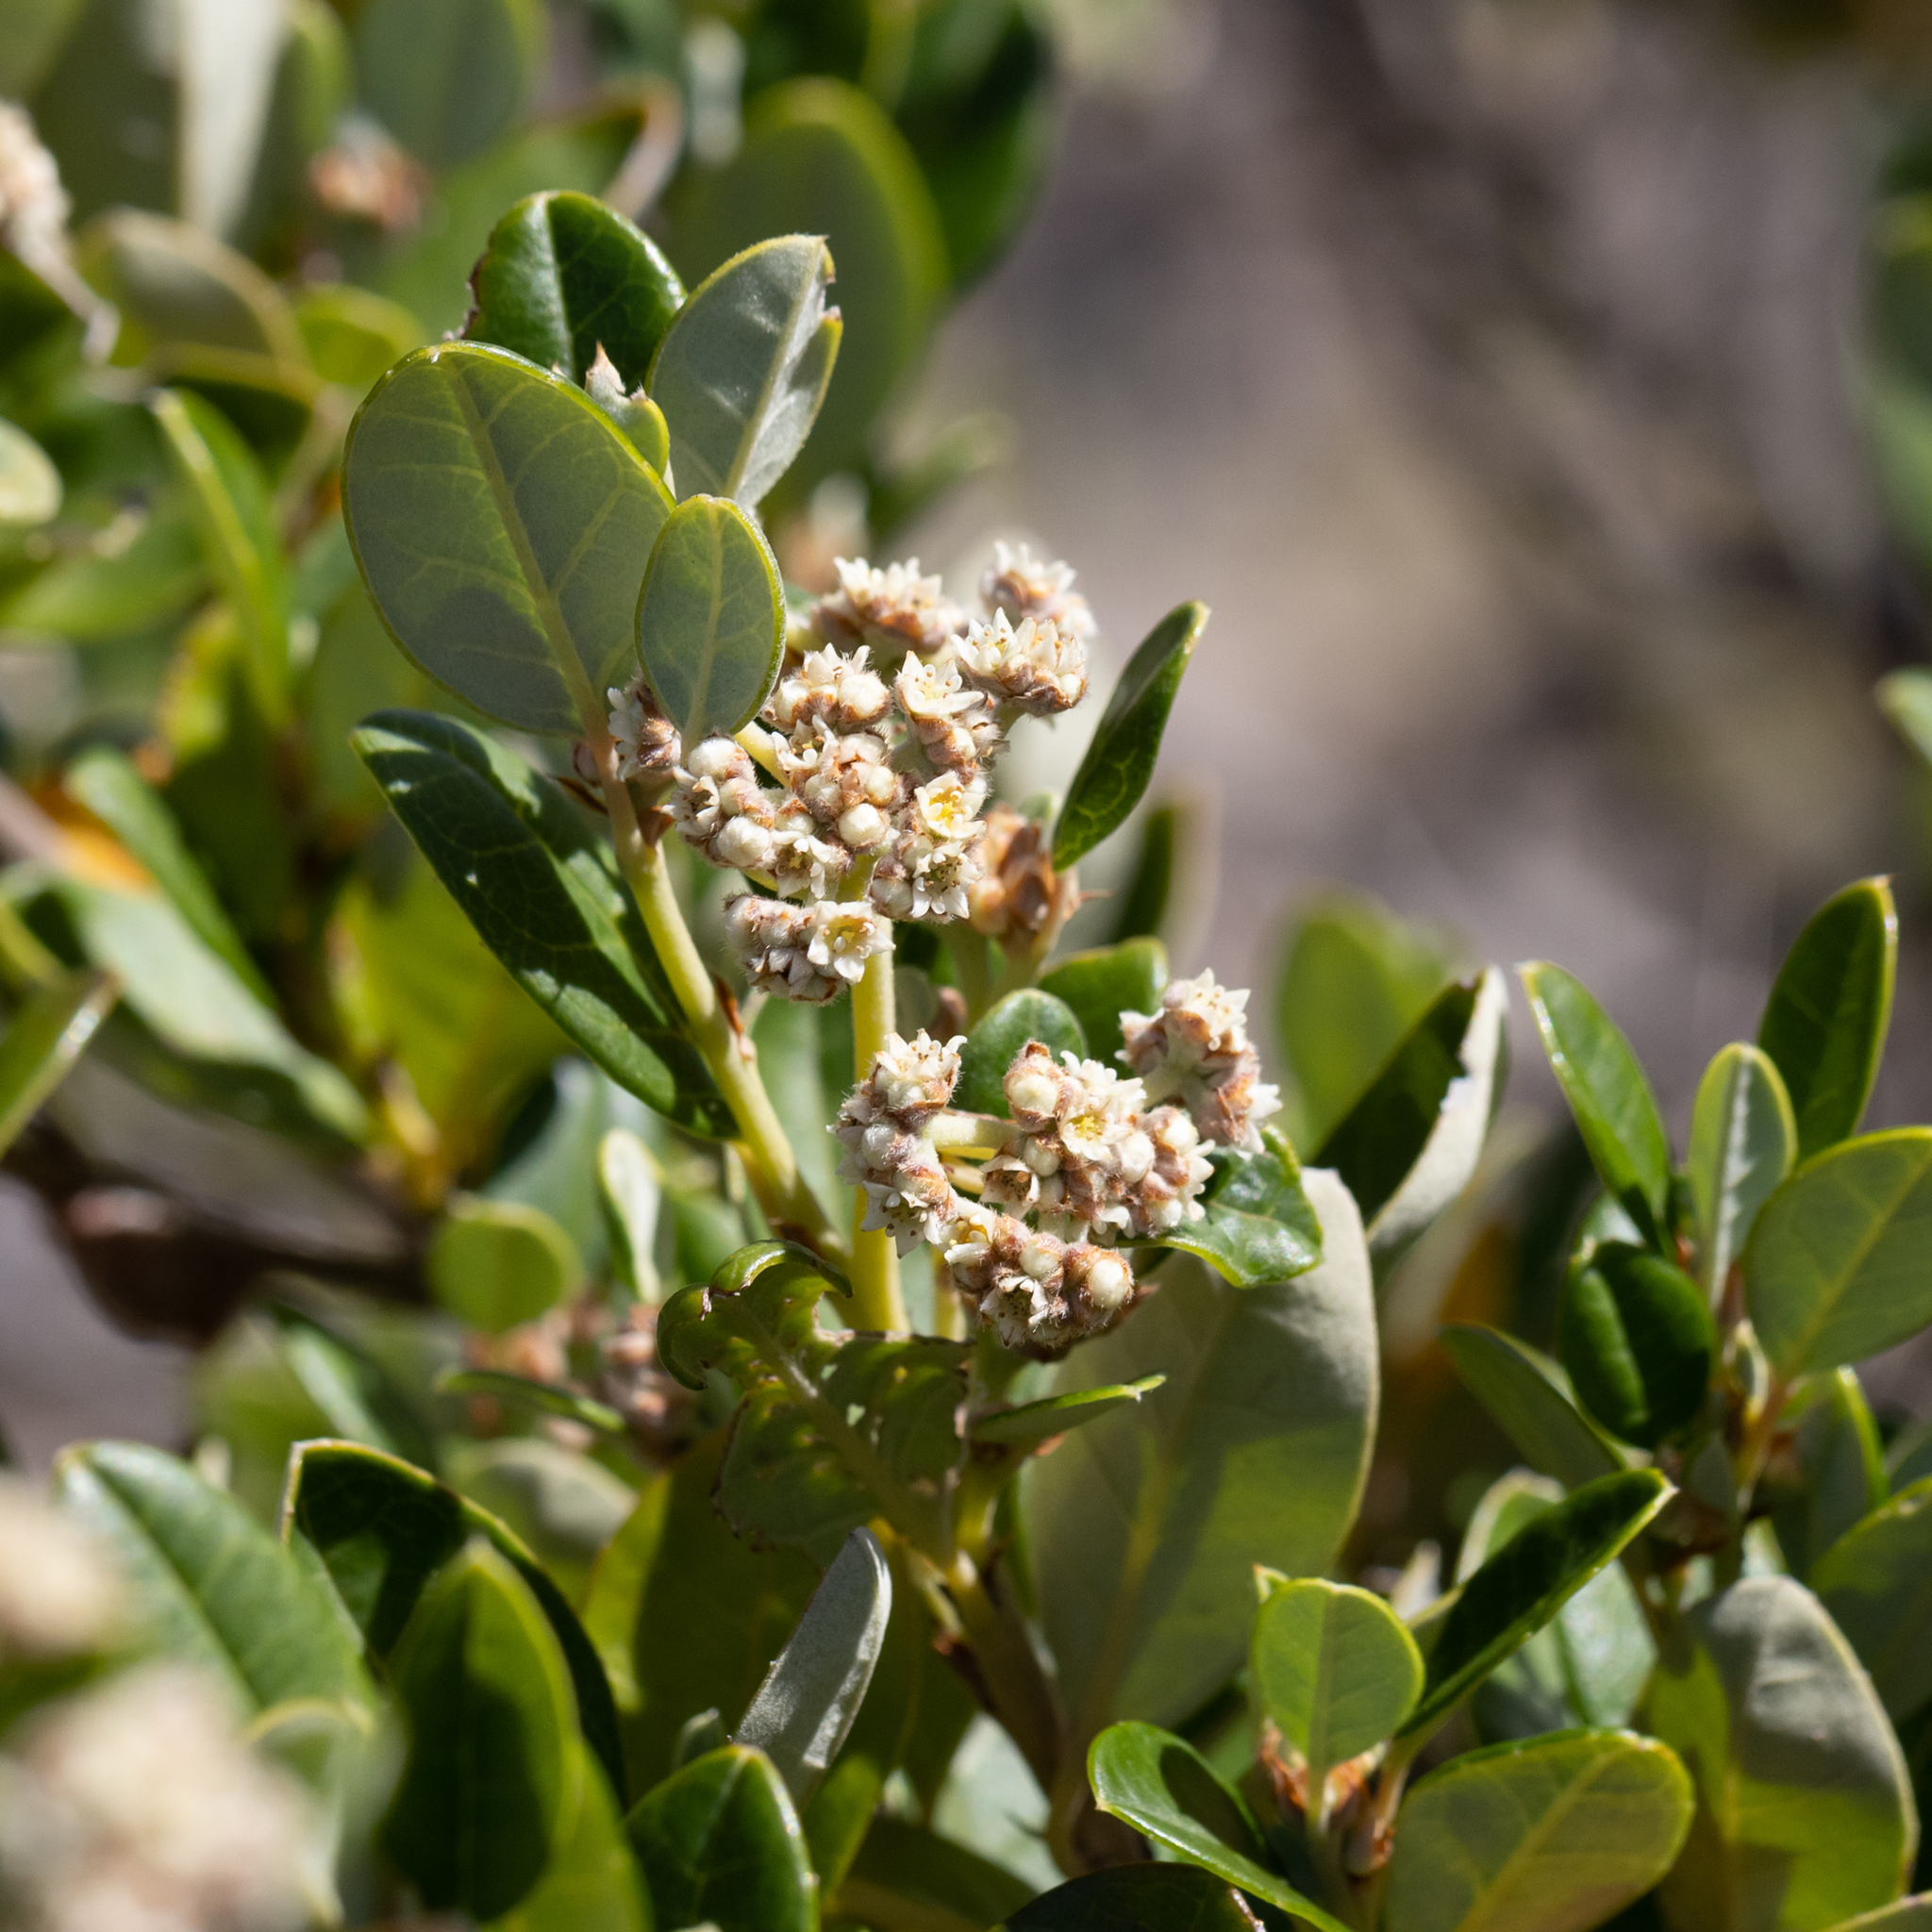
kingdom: Plantae
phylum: Tracheophyta
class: Magnoliopsida
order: Rosales
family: Rhamnaceae
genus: Spyridium
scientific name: Spyridium globulosum
